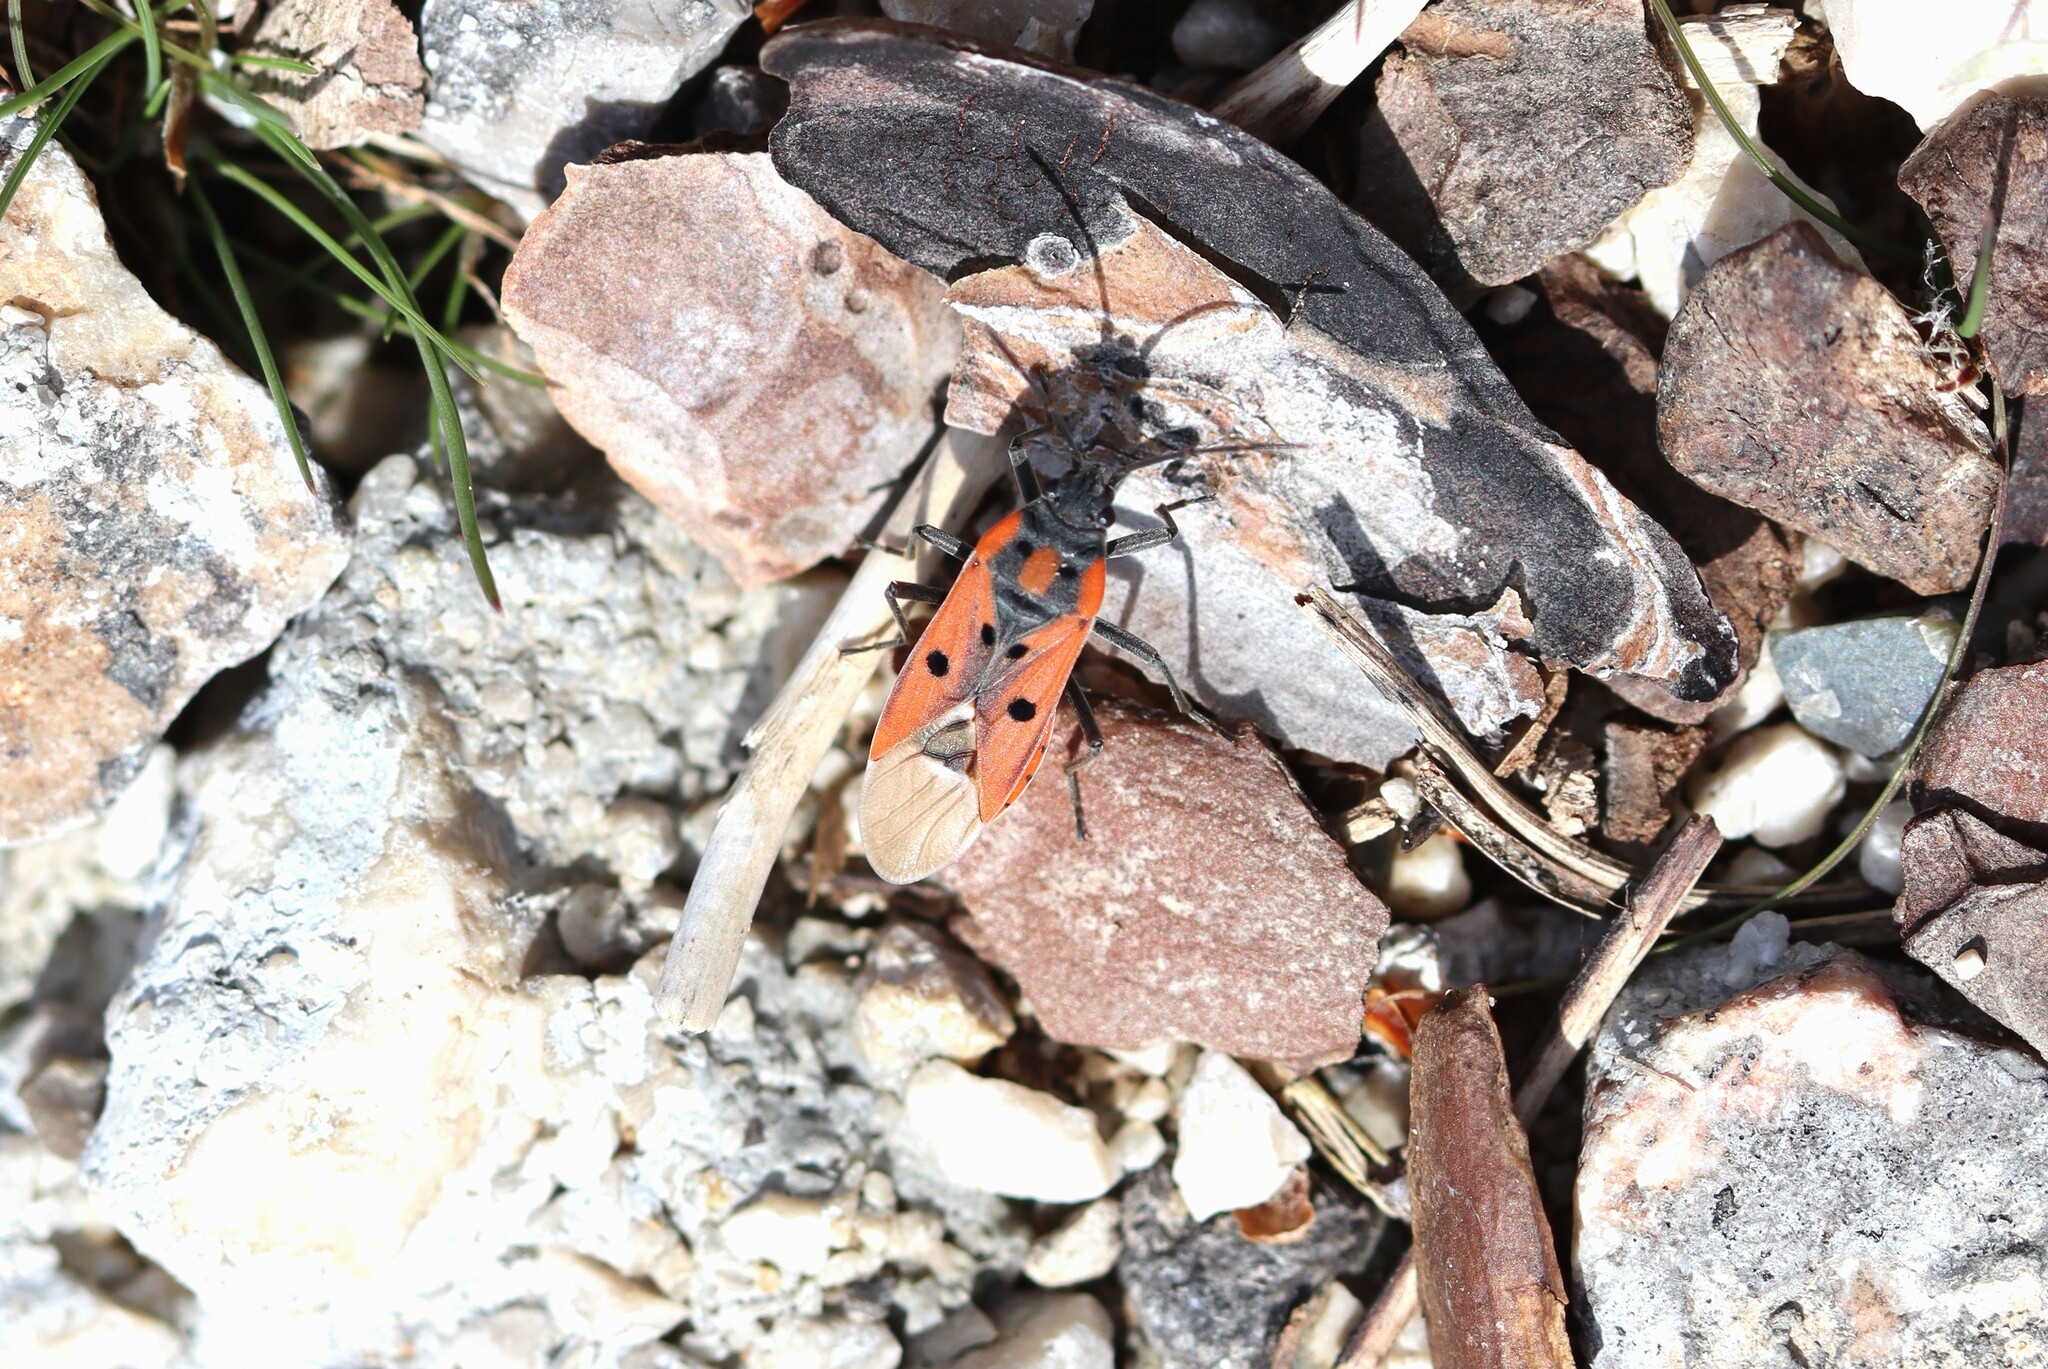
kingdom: Animalia
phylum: Arthropoda
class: Insecta
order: Hemiptera
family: Lygaeidae
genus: Lygaeus
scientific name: Lygaeus creticus
